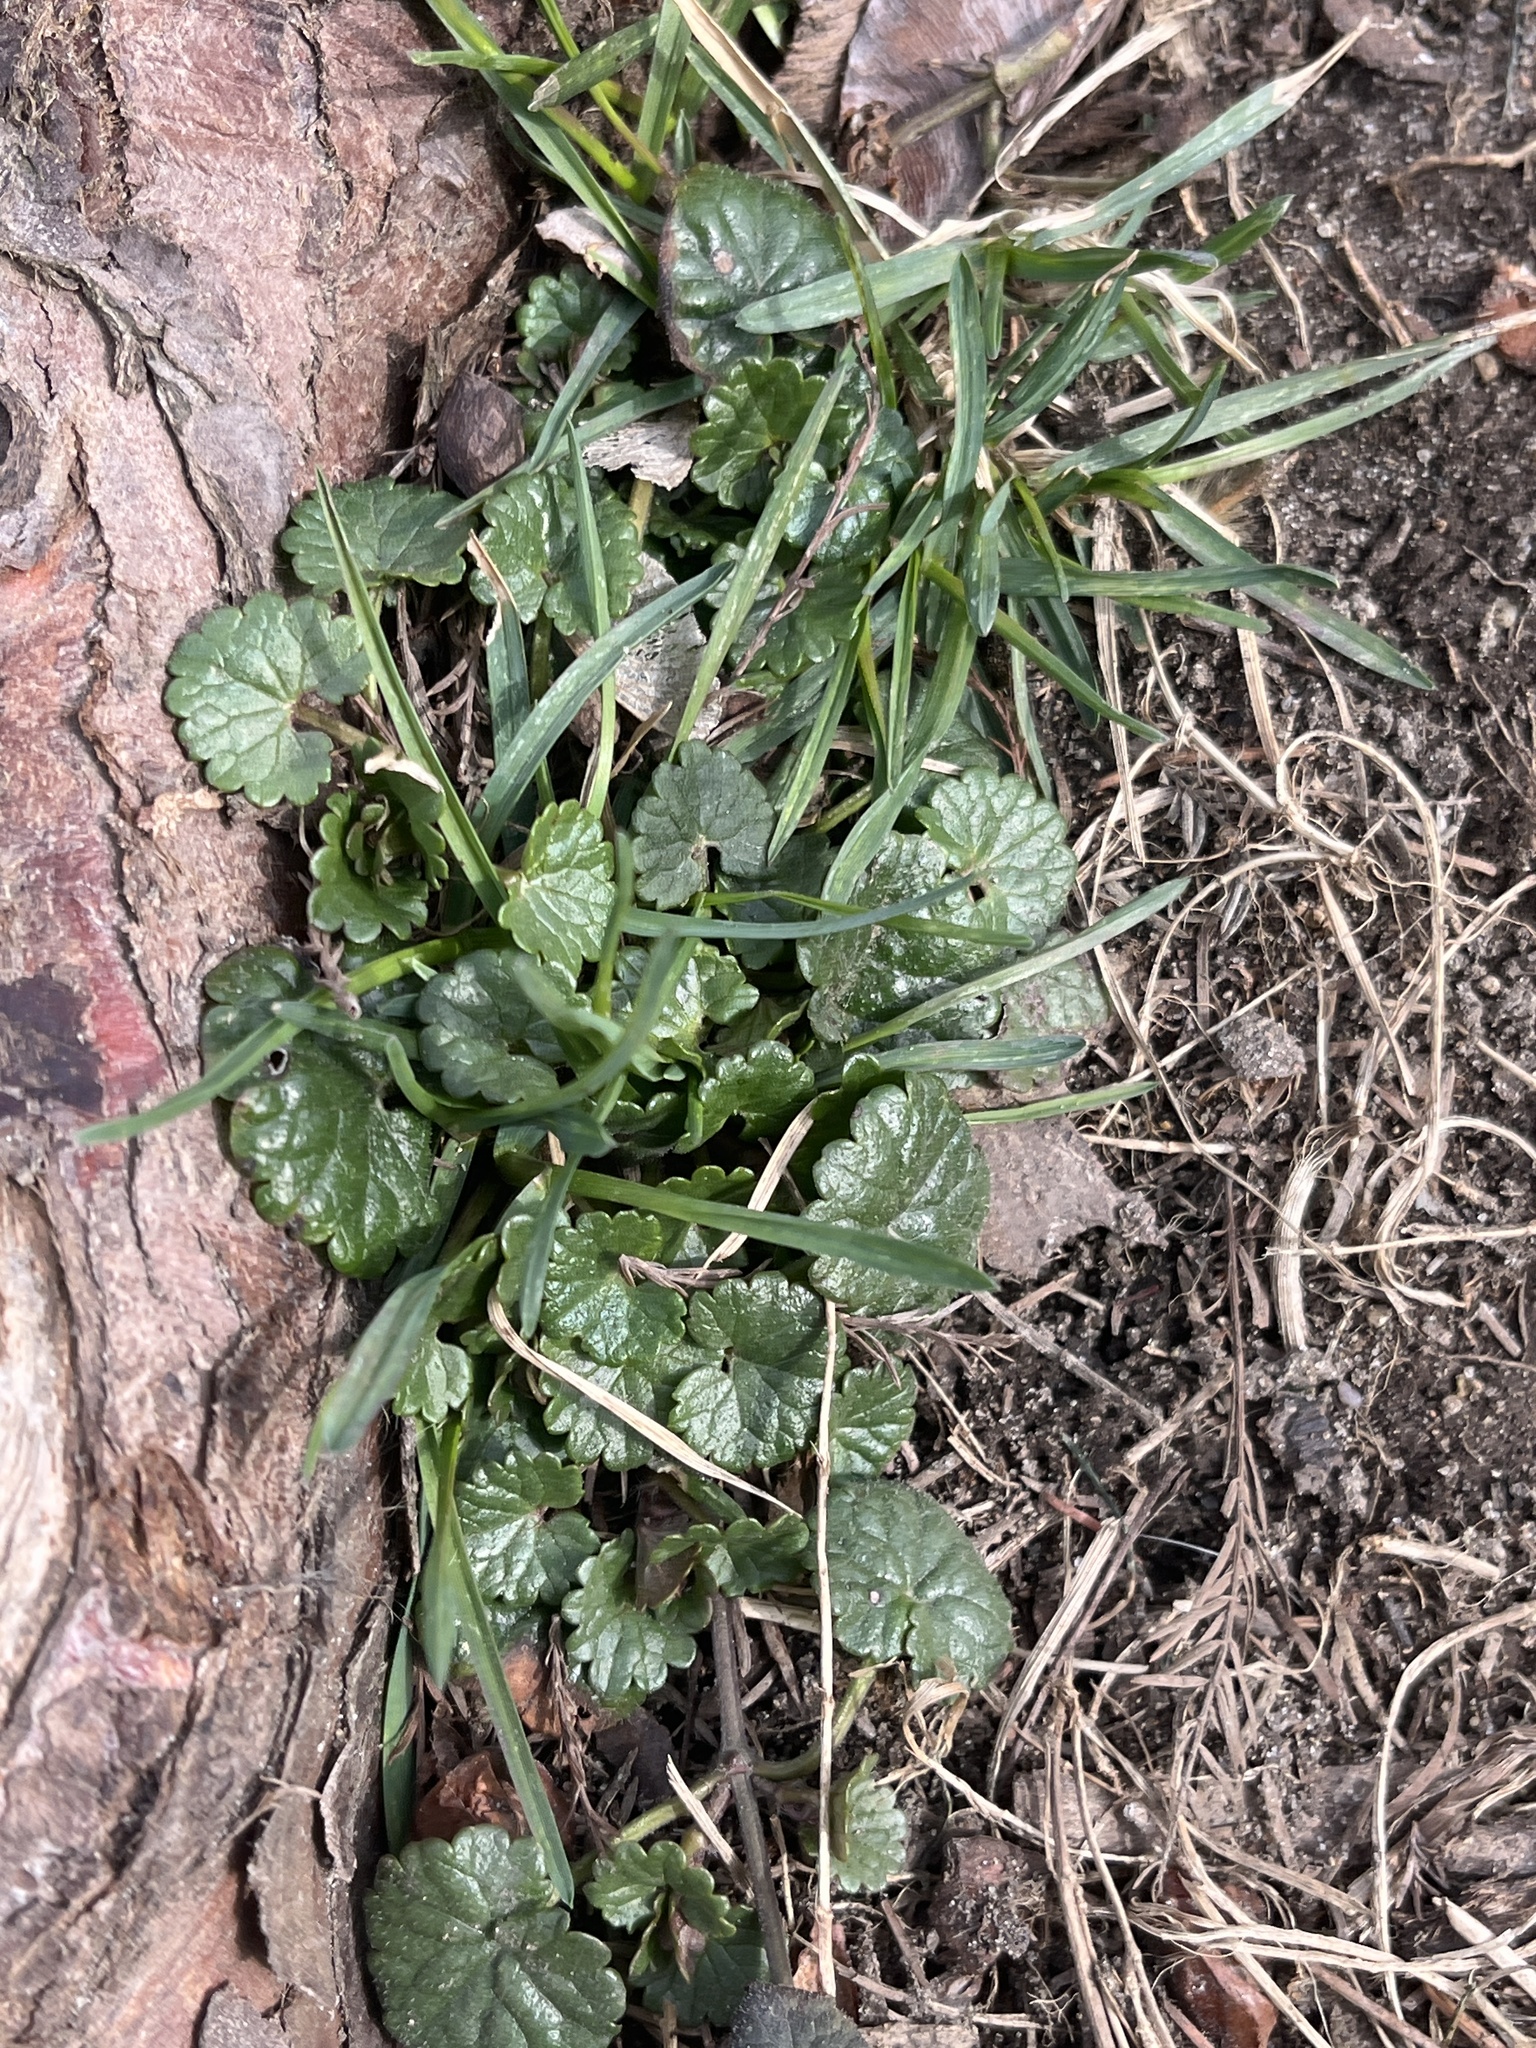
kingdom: Plantae
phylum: Tracheophyta
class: Magnoliopsida
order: Lamiales
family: Lamiaceae
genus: Glechoma
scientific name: Glechoma hederacea
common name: Ground ivy
